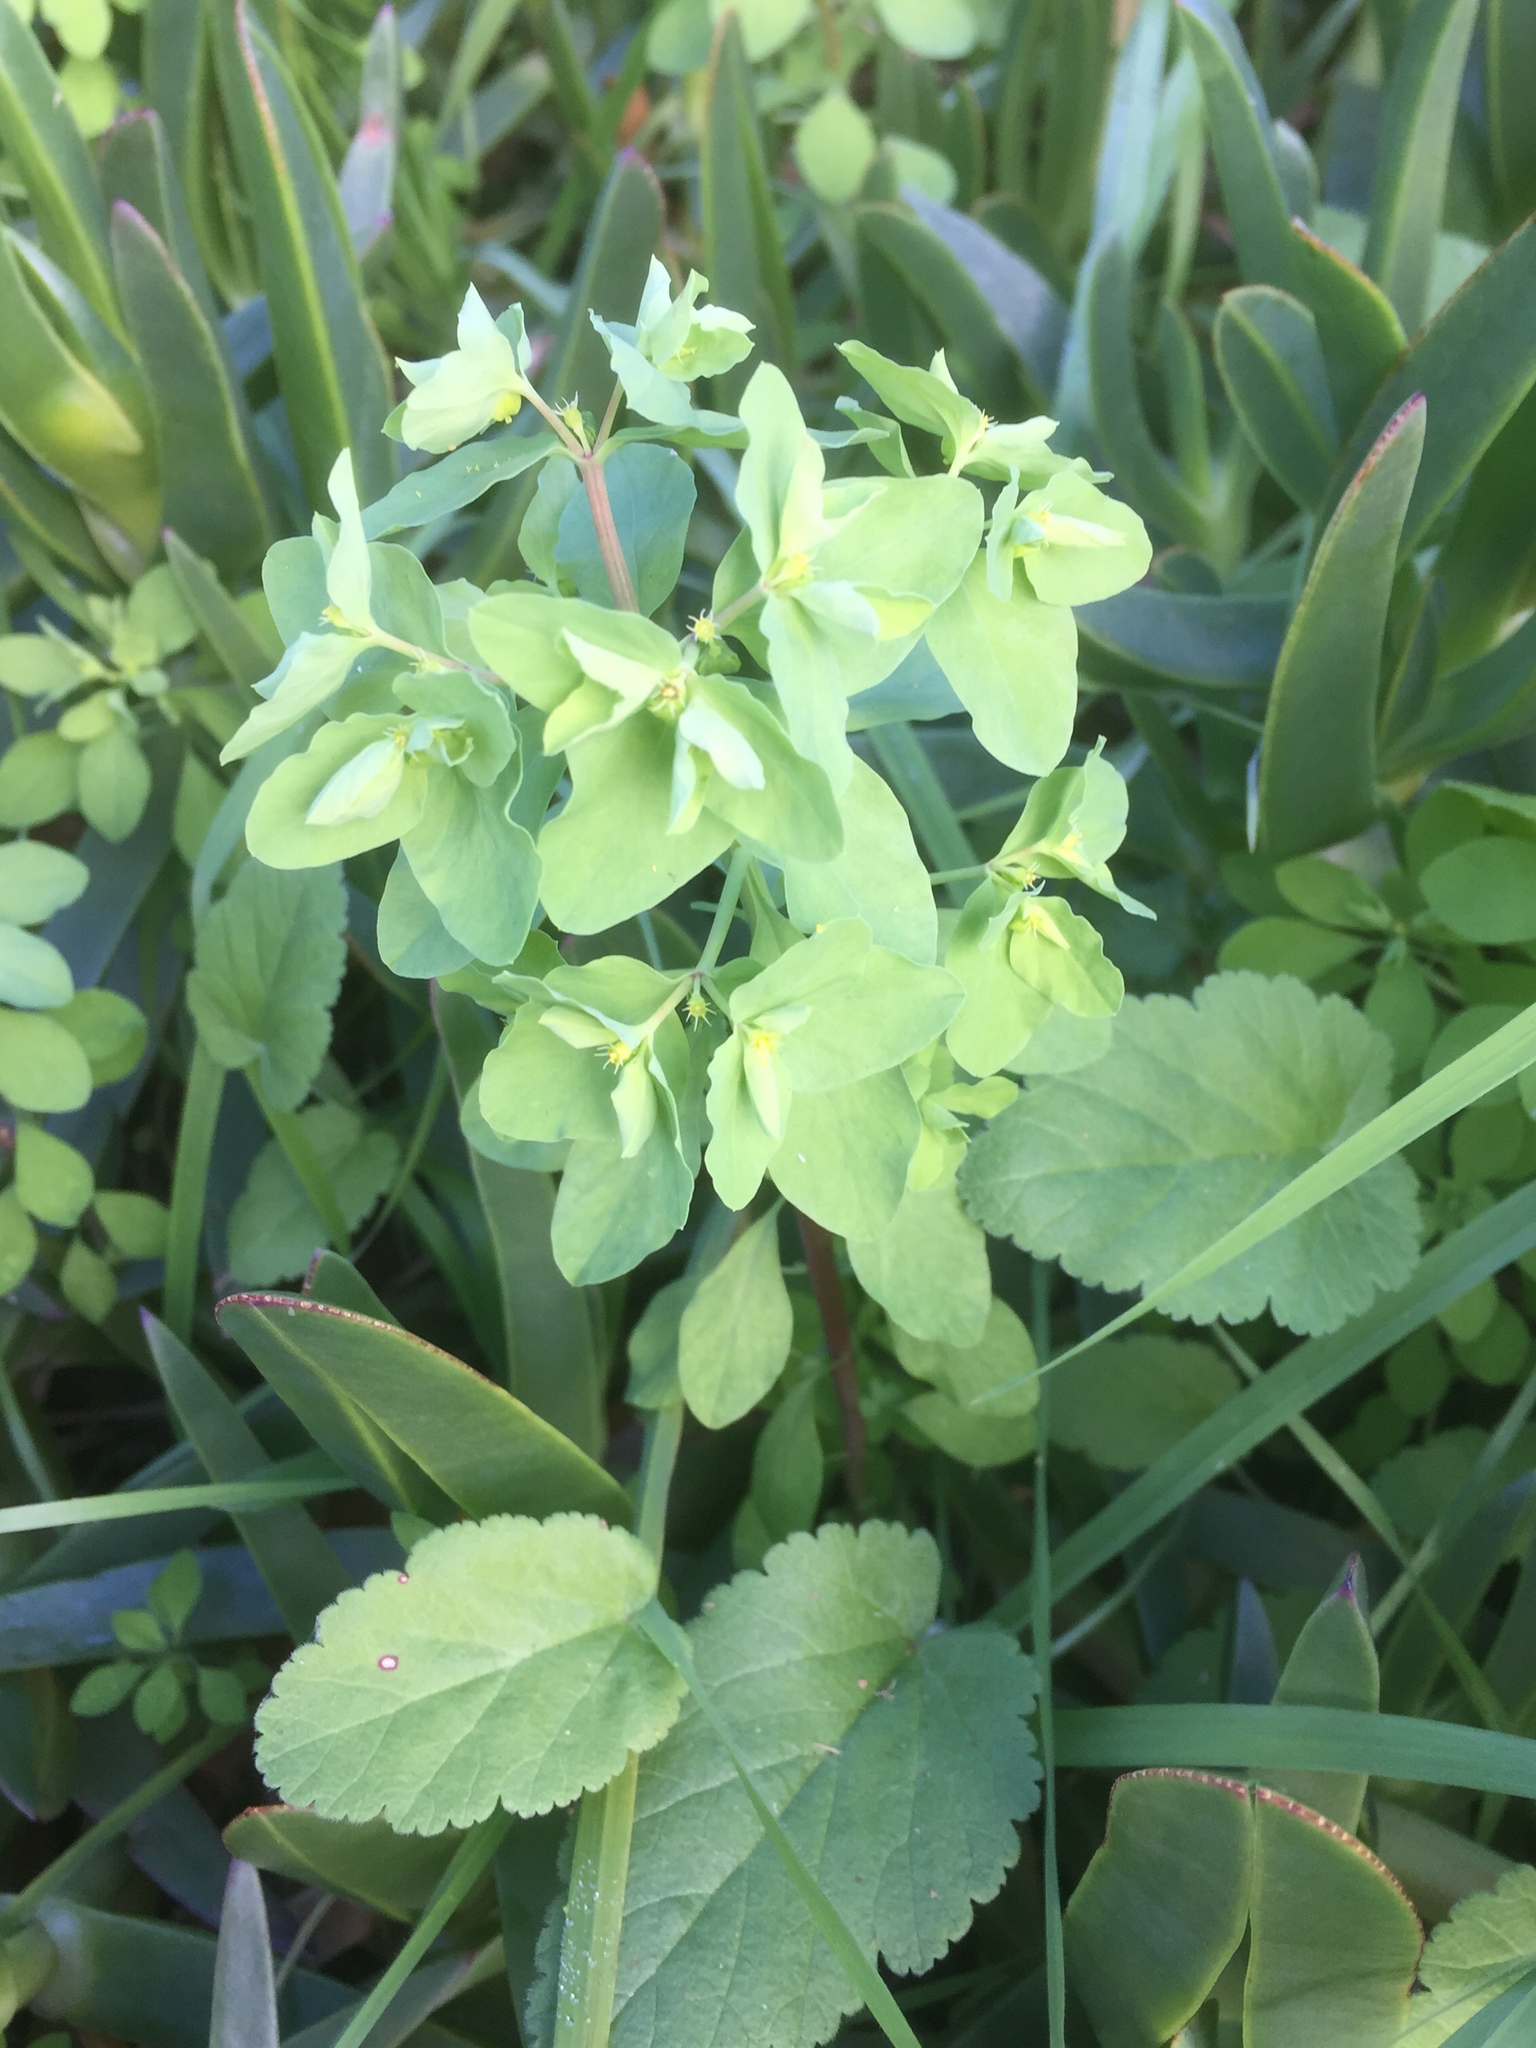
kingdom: Plantae
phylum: Tracheophyta
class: Magnoliopsida
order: Malpighiales
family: Euphorbiaceae
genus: Euphorbia
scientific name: Euphorbia peplus
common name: Petty spurge
